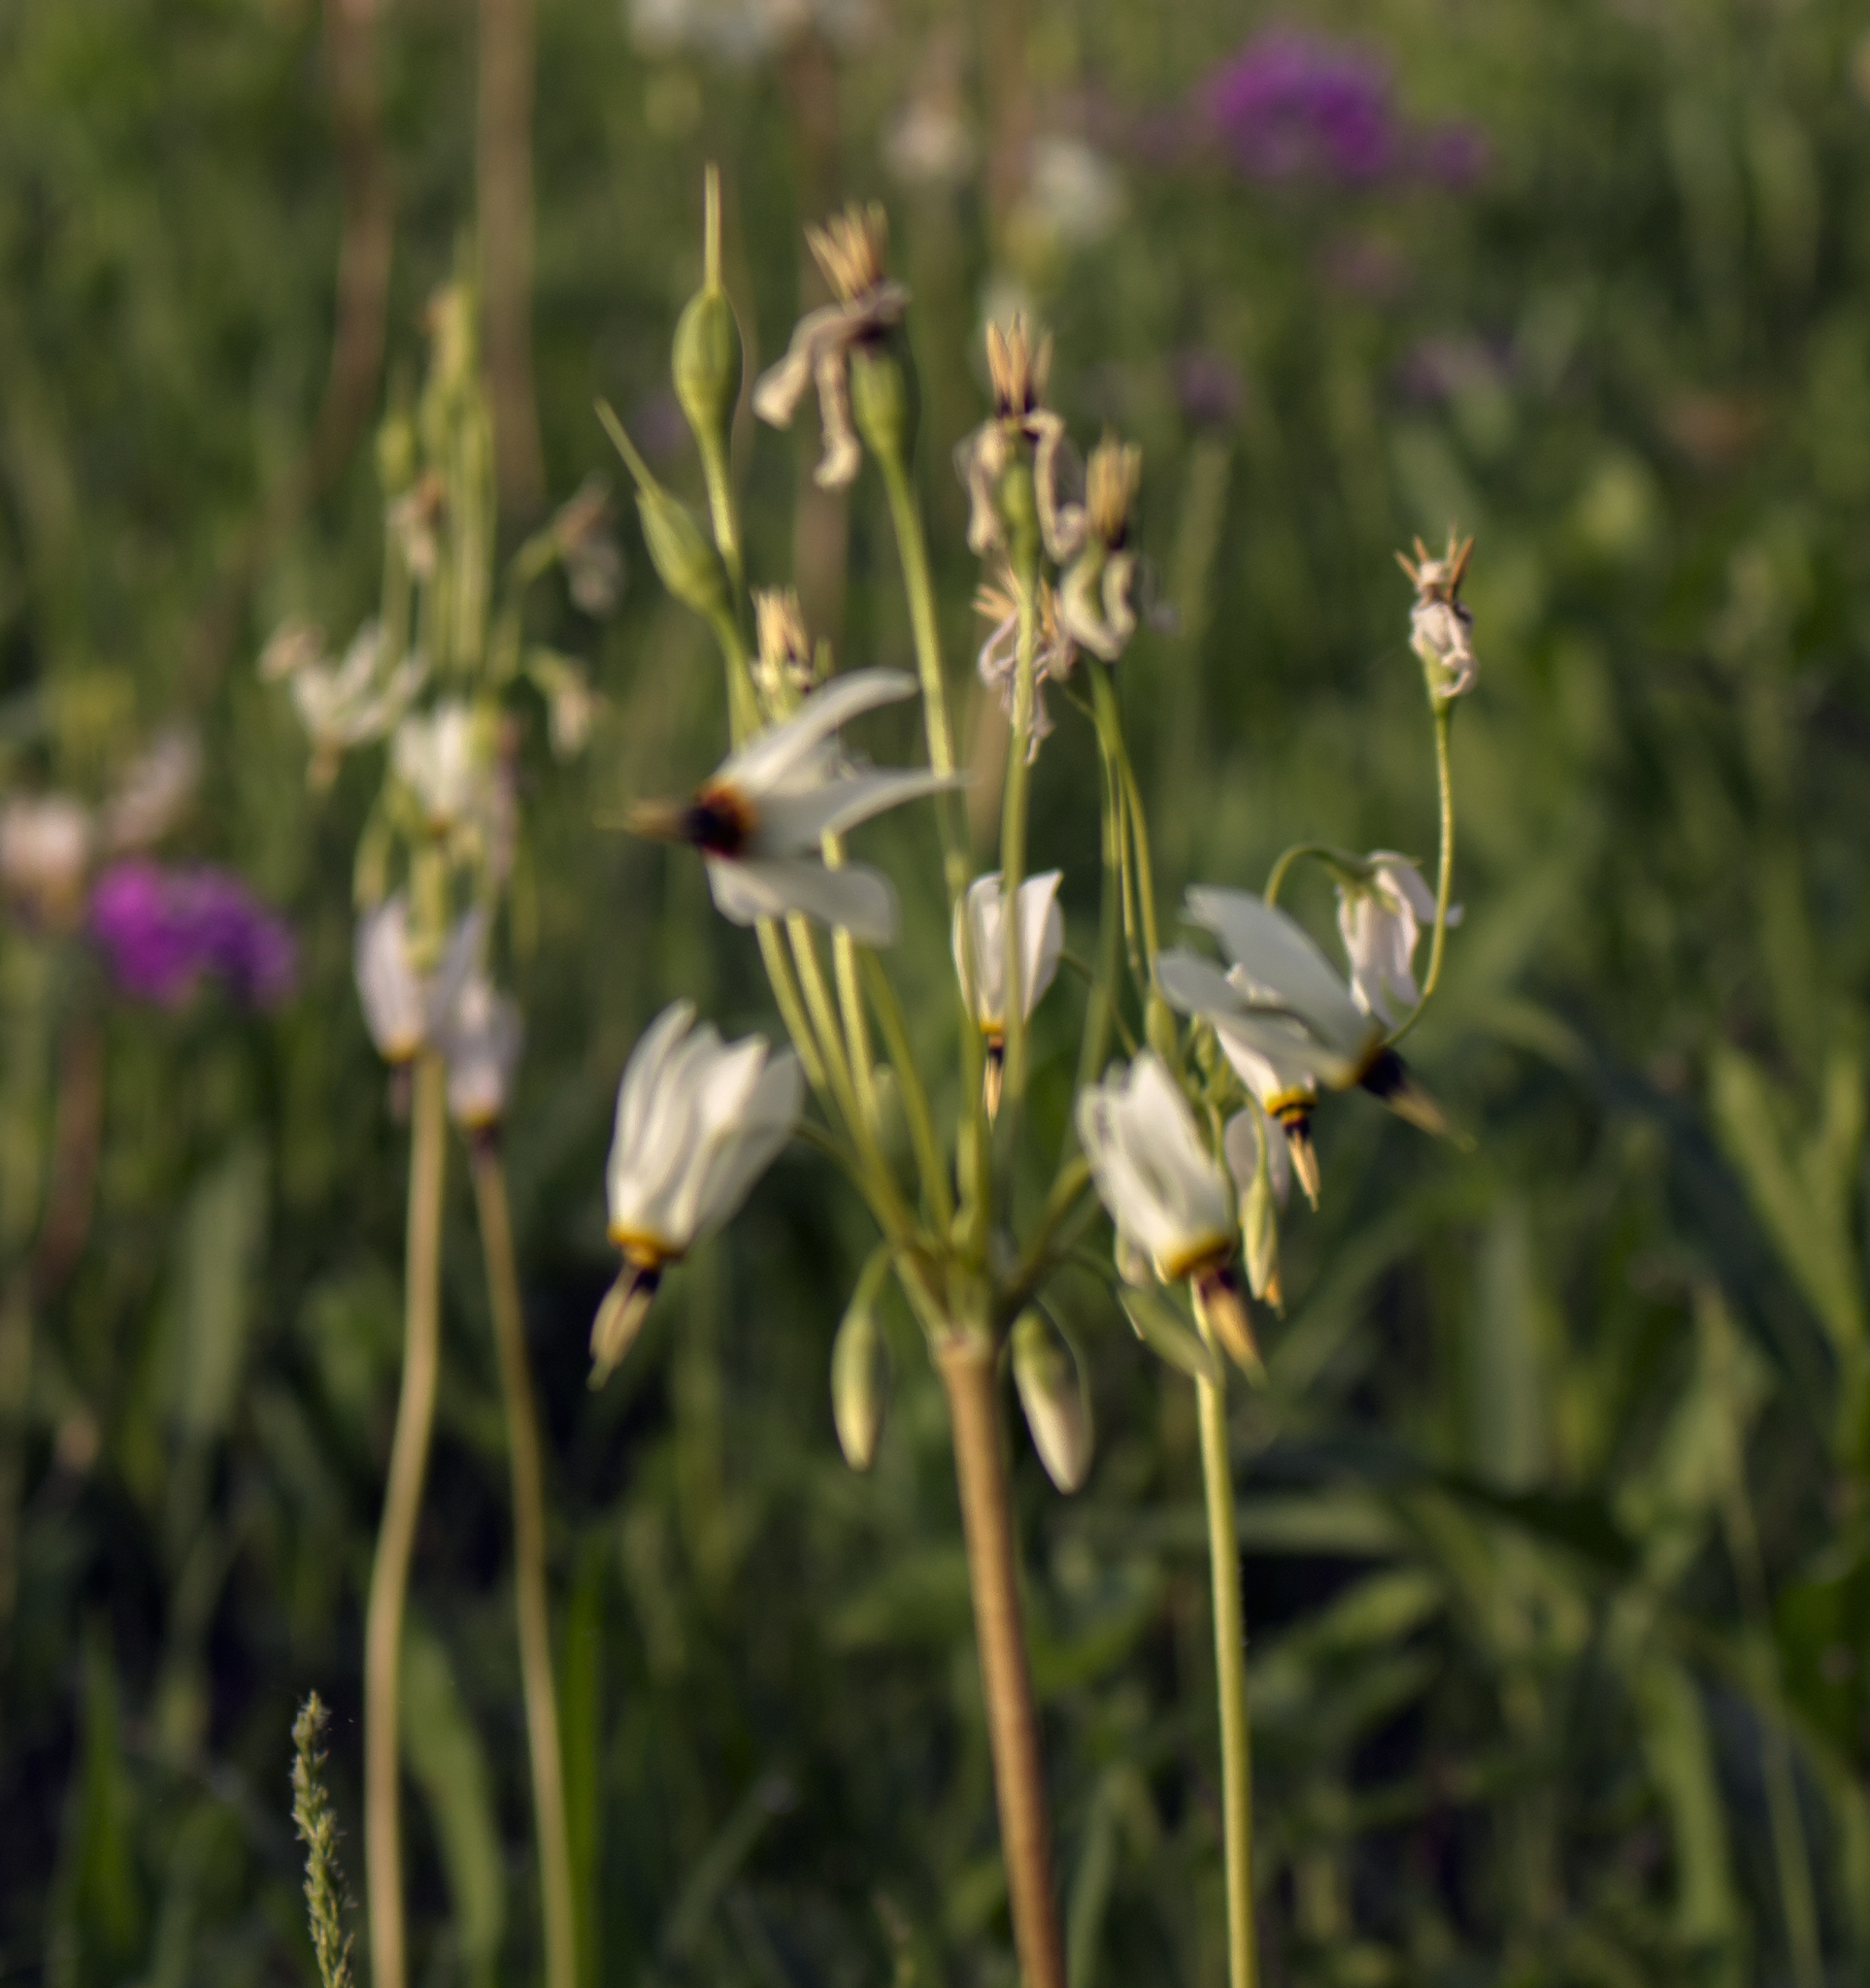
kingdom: Plantae
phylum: Tracheophyta
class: Magnoliopsida
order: Ericales
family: Primulaceae
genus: Dodecatheon
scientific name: Dodecatheon meadia
